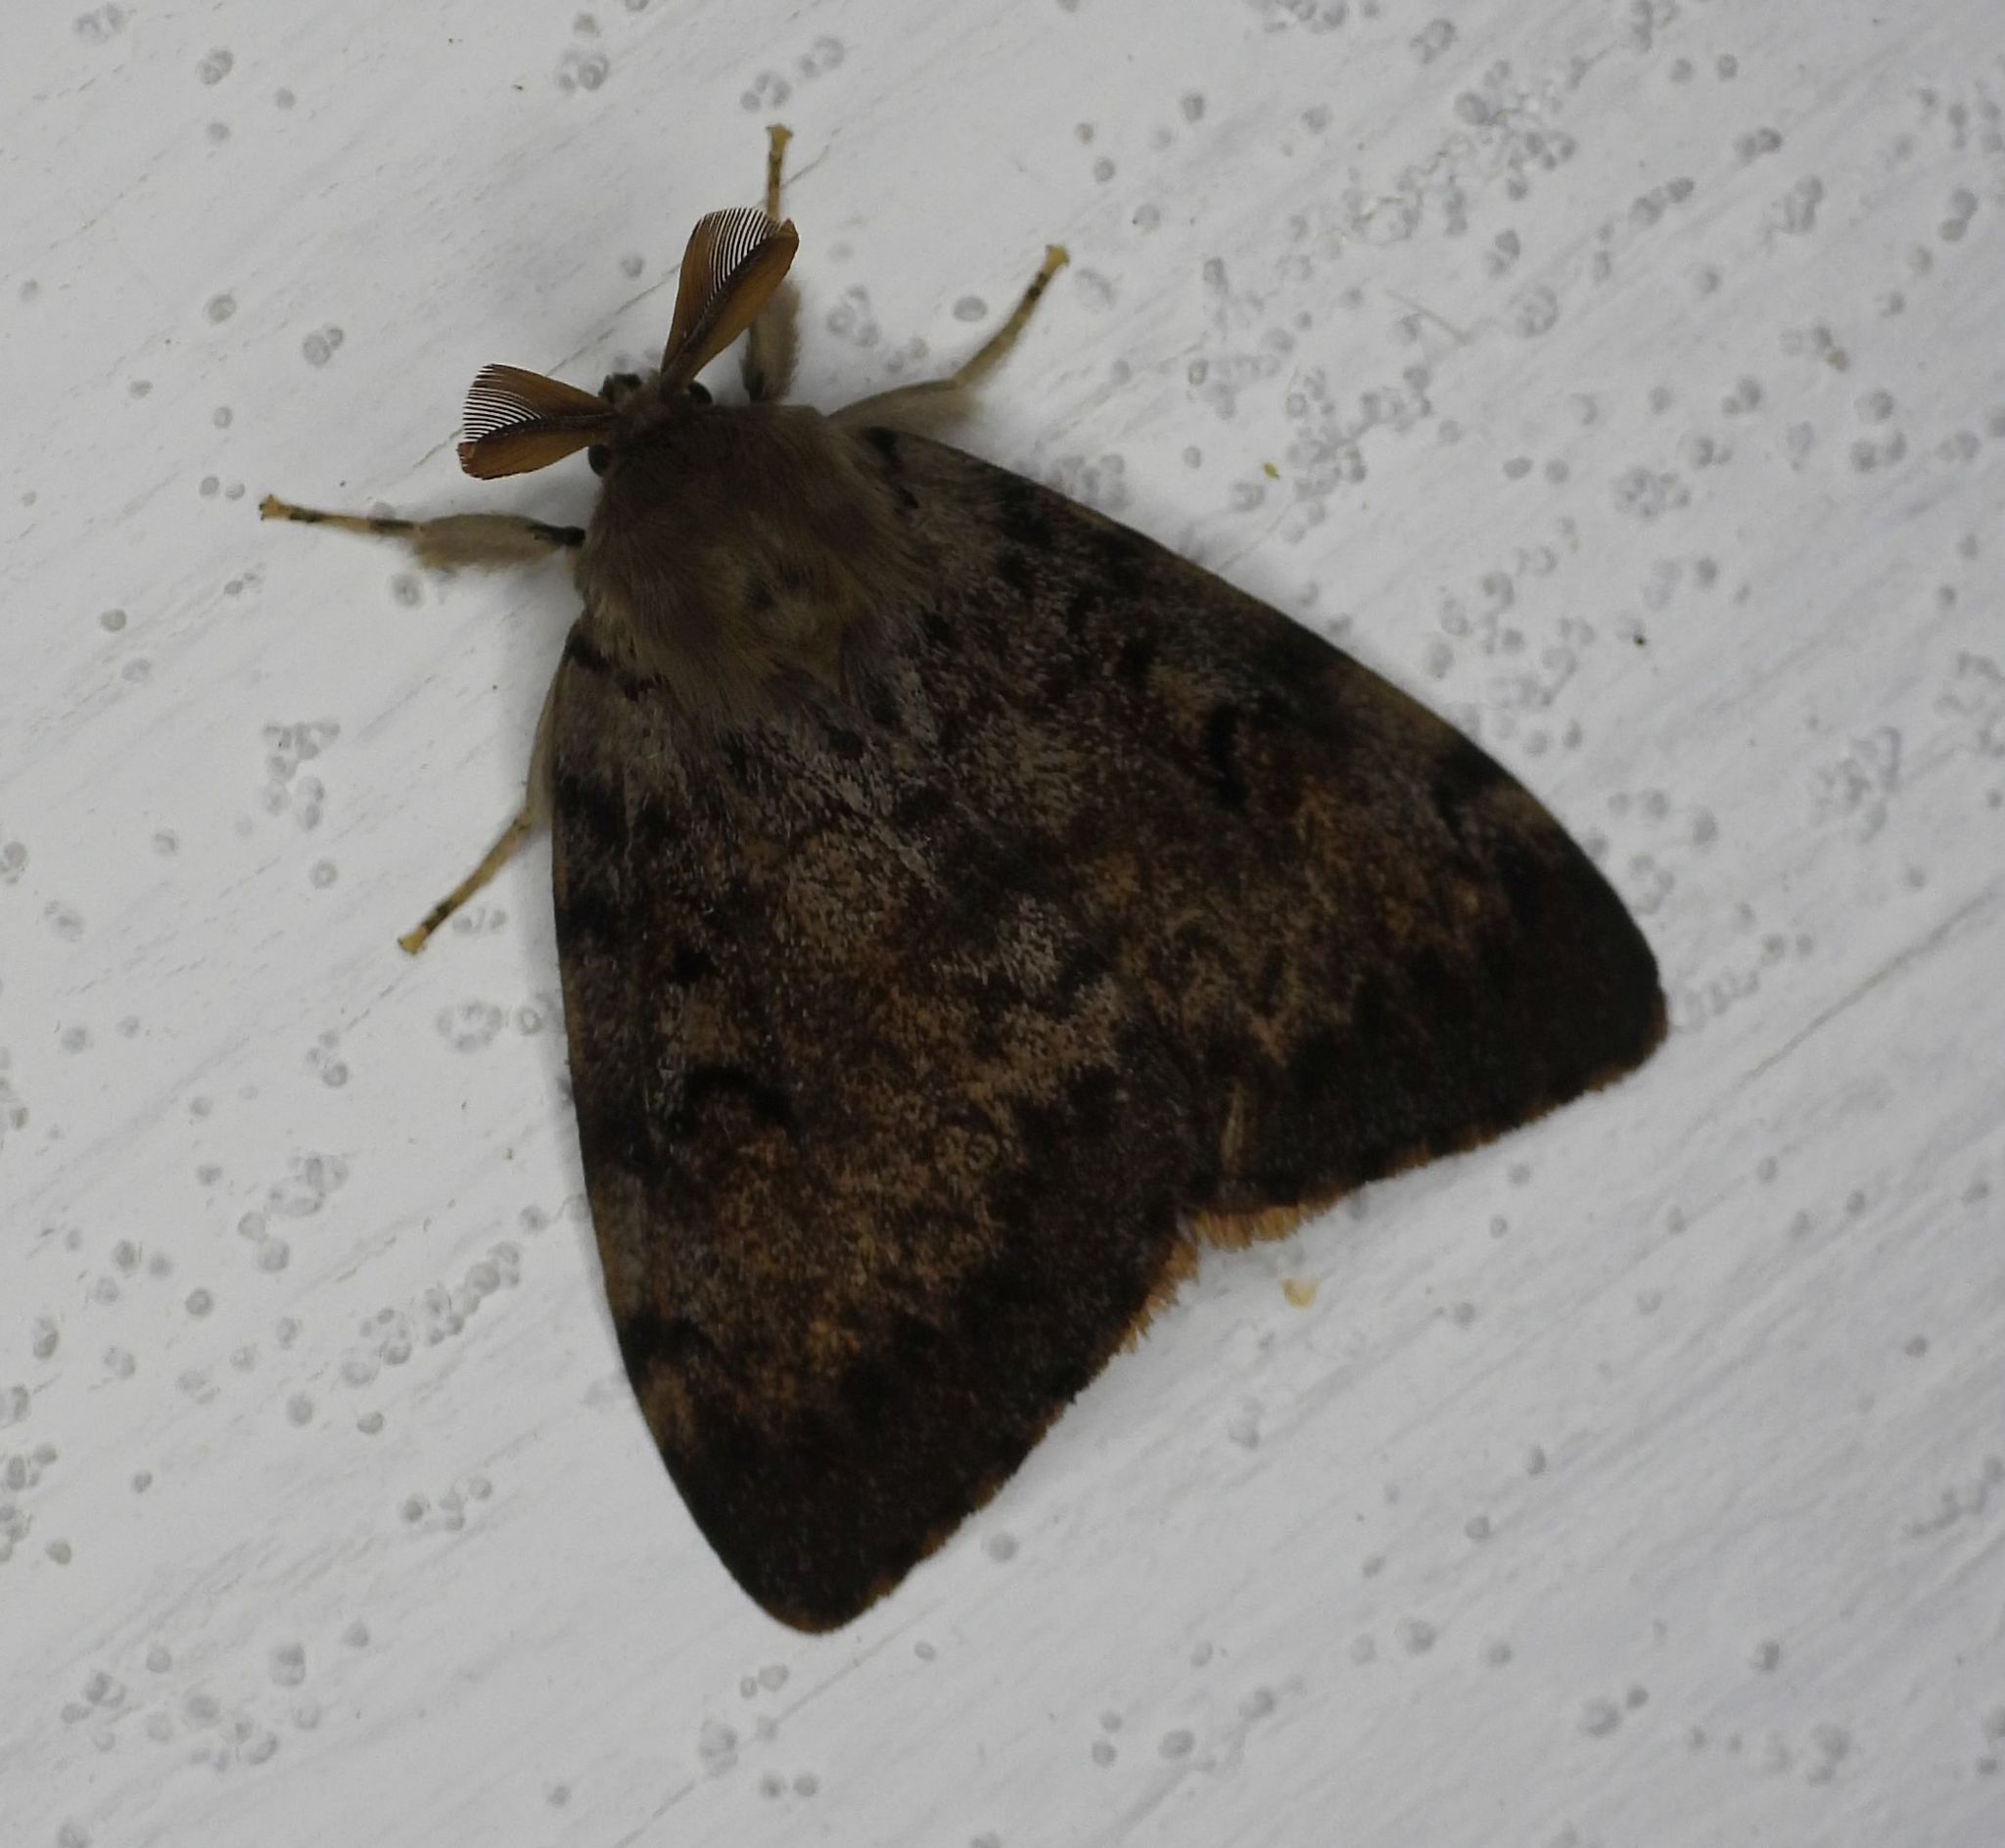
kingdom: Animalia
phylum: Arthropoda
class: Insecta
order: Lepidoptera
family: Erebidae
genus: Lymantria
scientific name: Lymantria dispar
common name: Gypsy moth
